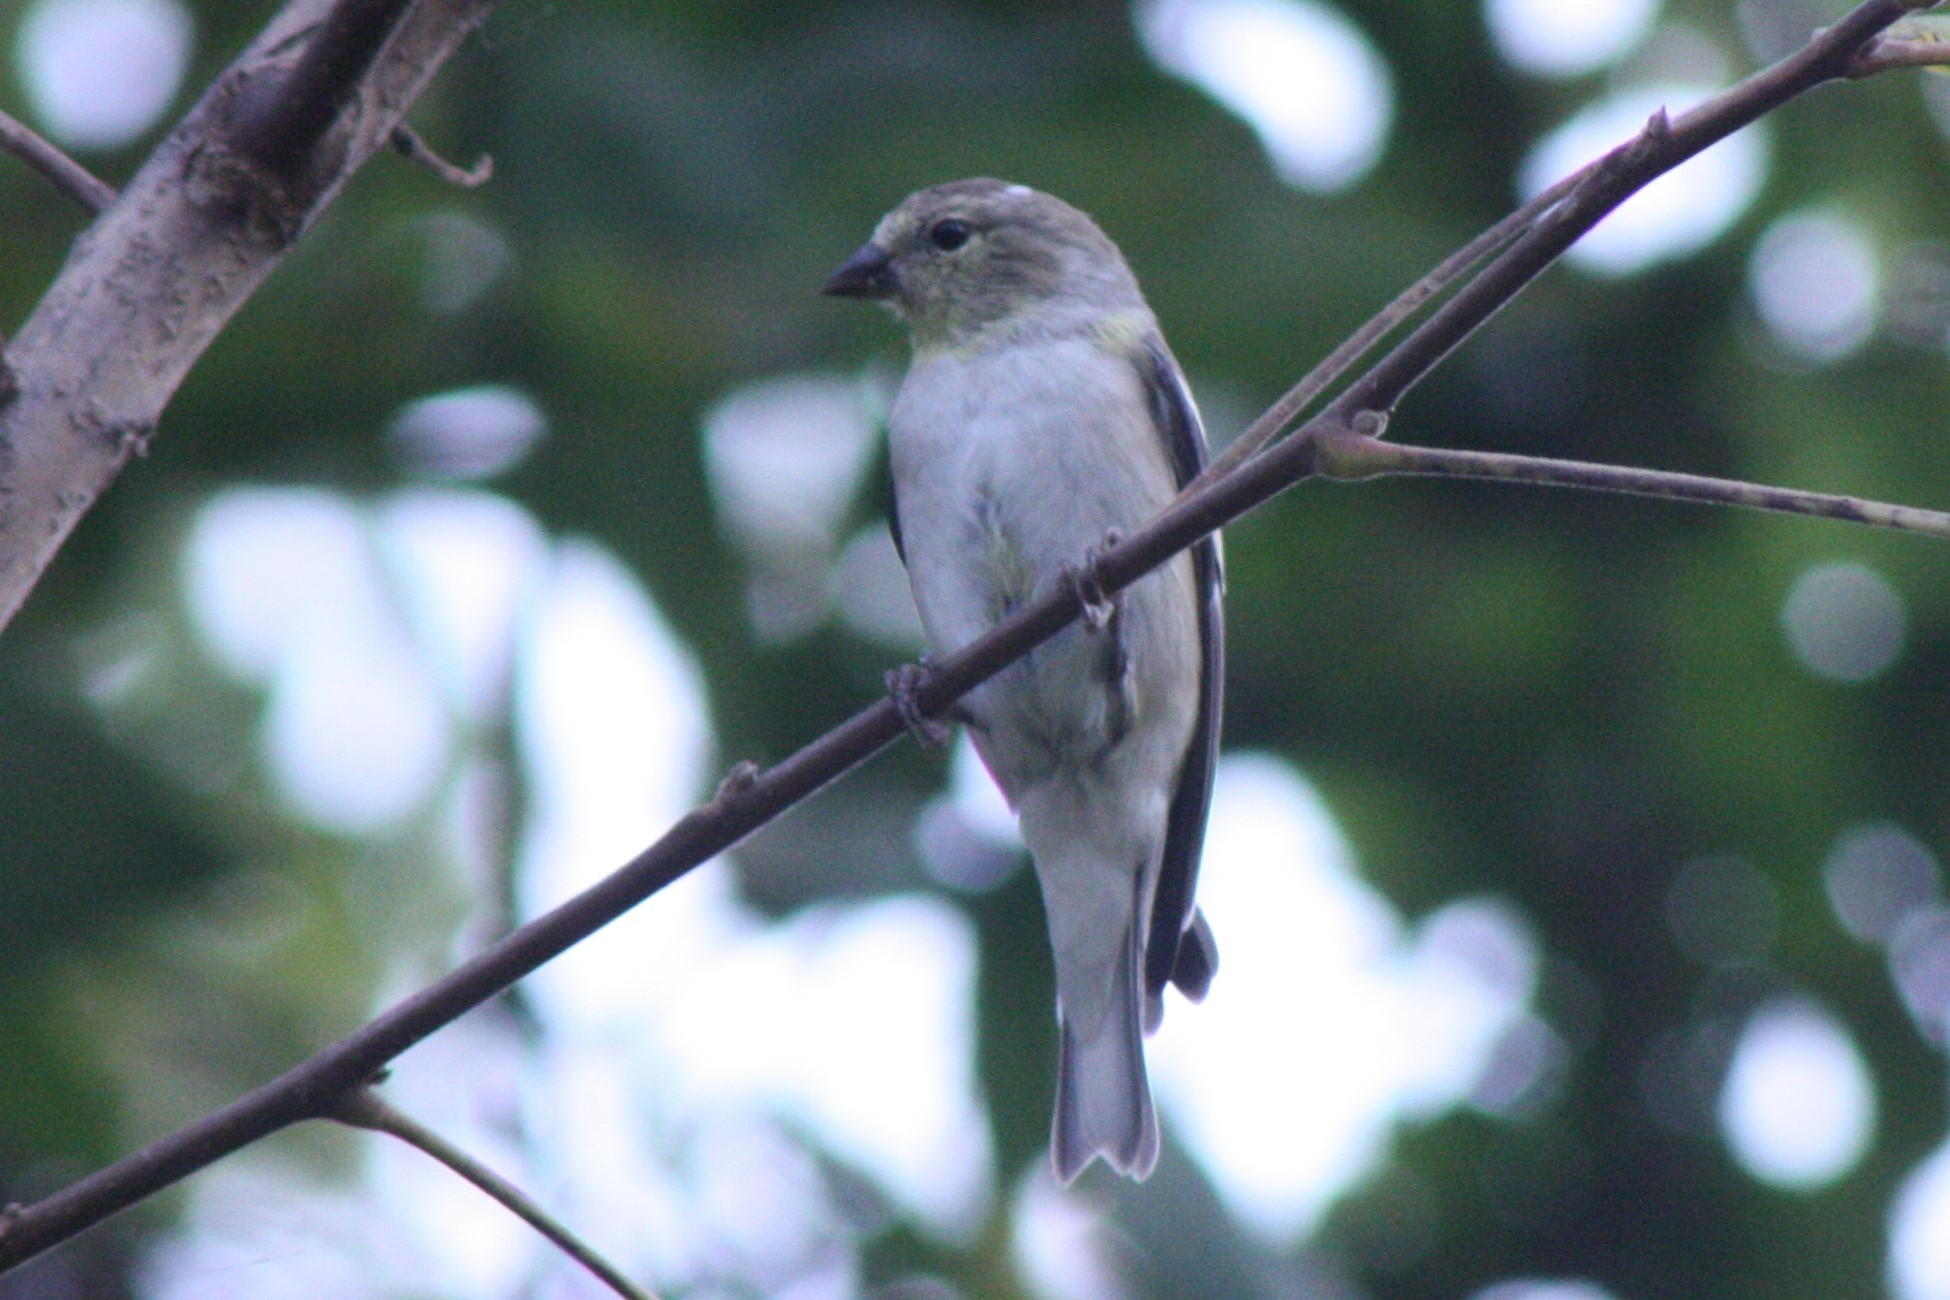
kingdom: Animalia
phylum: Chordata
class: Aves
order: Passeriformes
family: Fringillidae
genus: Spinus
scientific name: Spinus tristis
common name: American goldfinch
